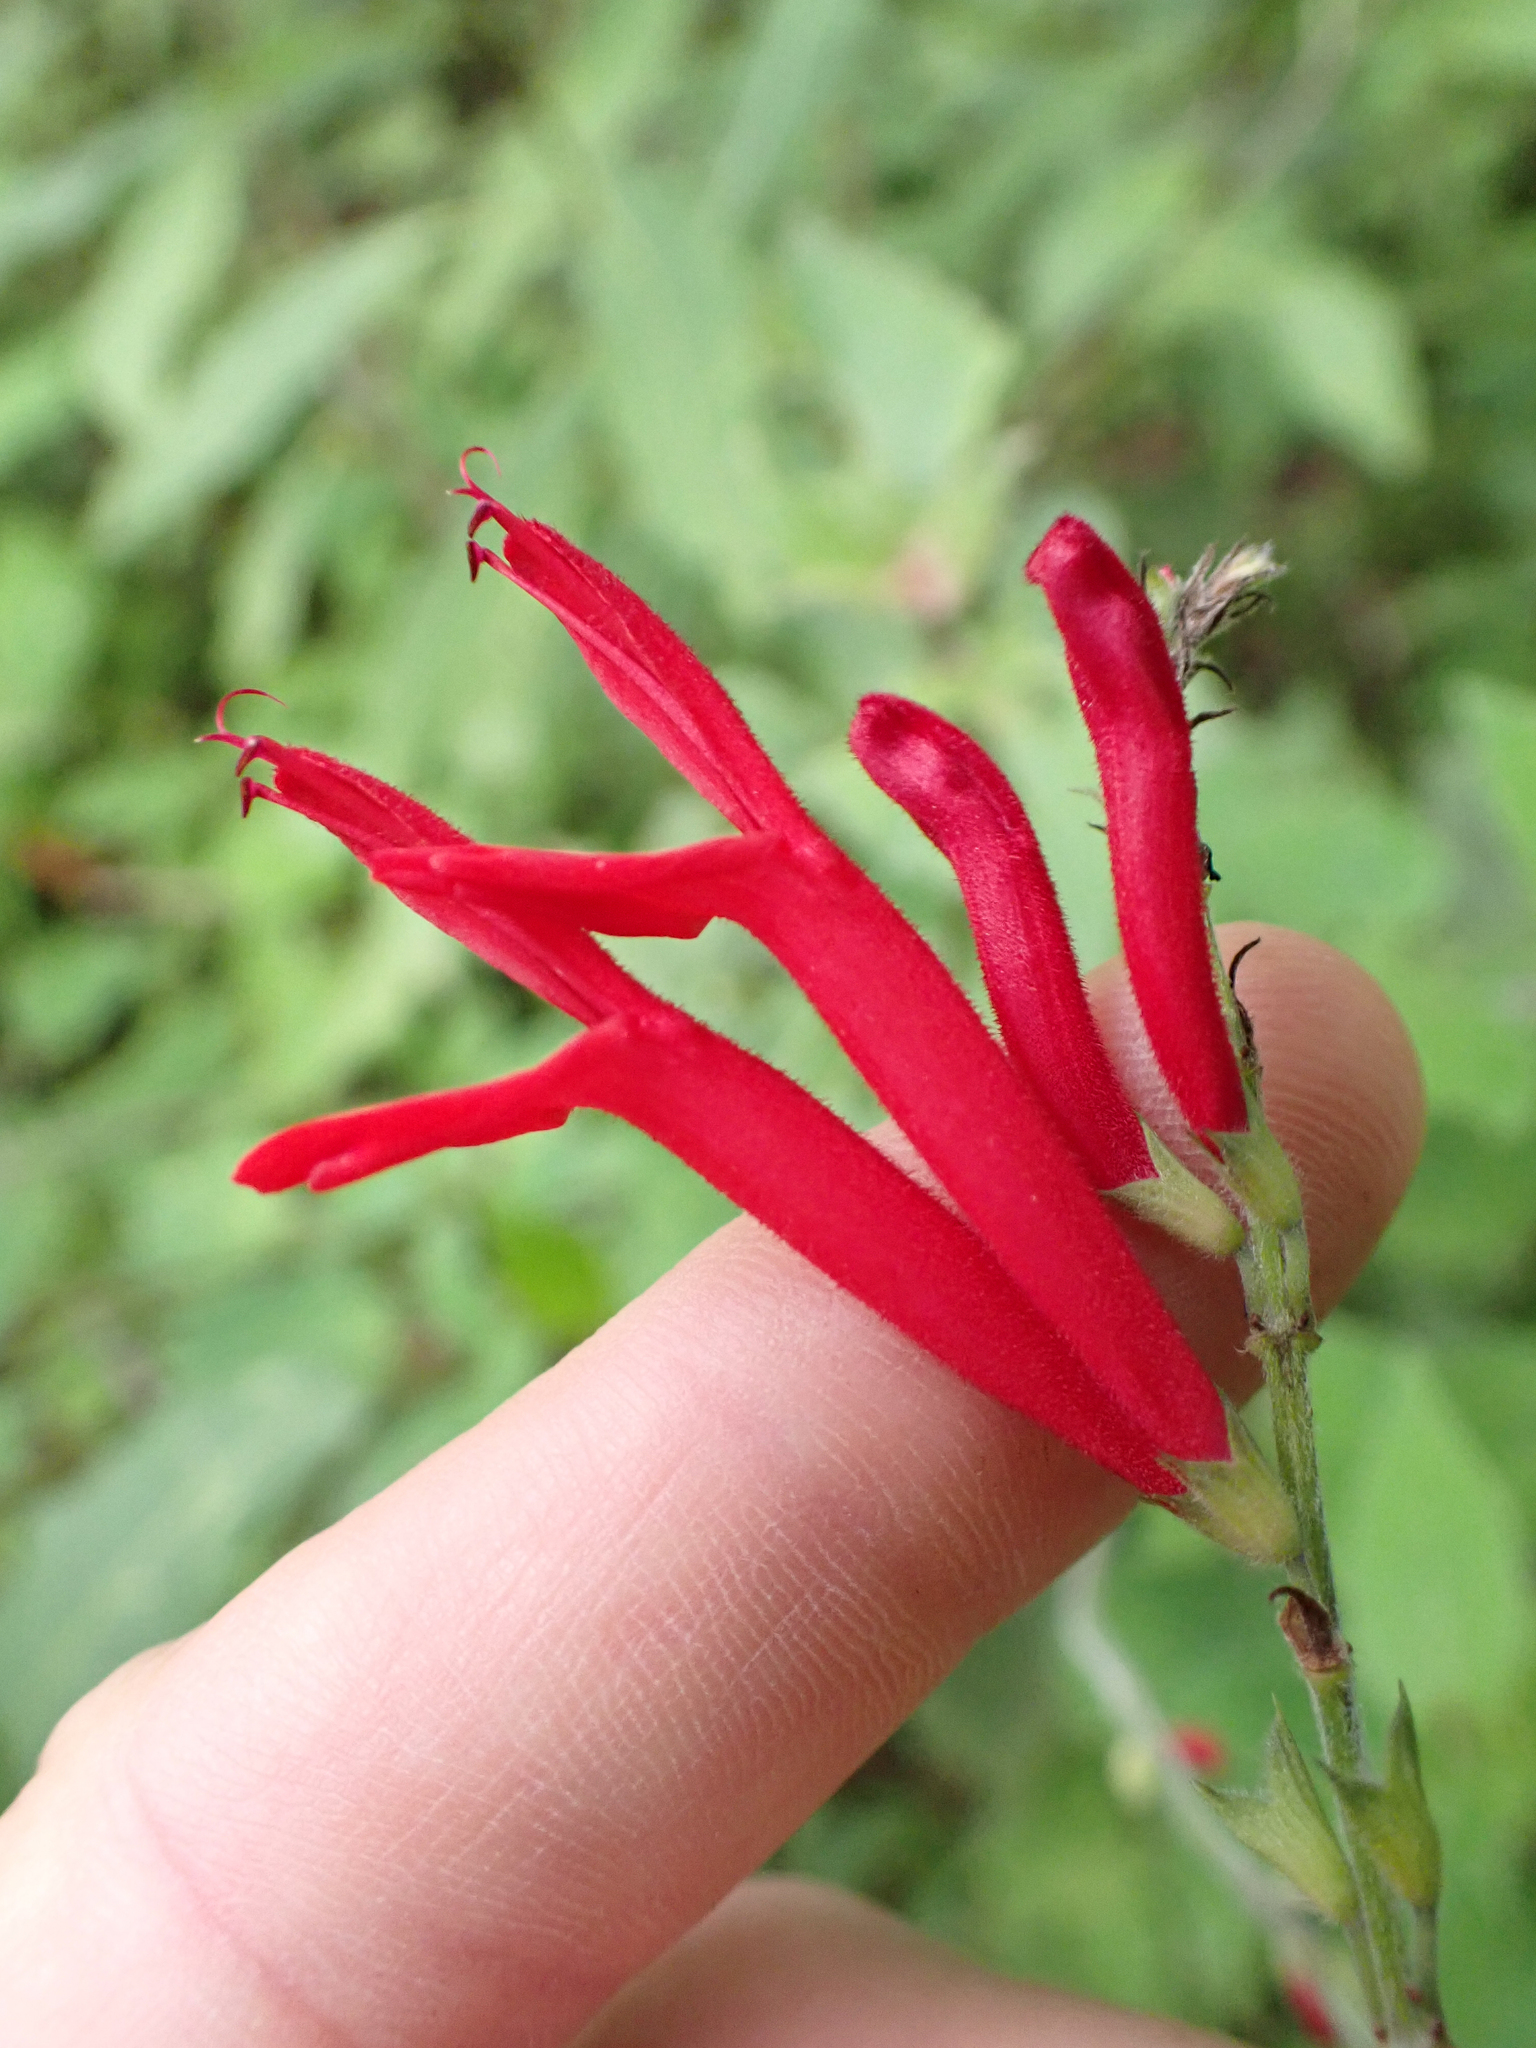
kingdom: Plantae
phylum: Tracheophyta
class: Magnoliopsida
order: Lamiales
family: Lamiaceae
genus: Salvia
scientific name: Salvia elegans
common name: Pineapple sage
